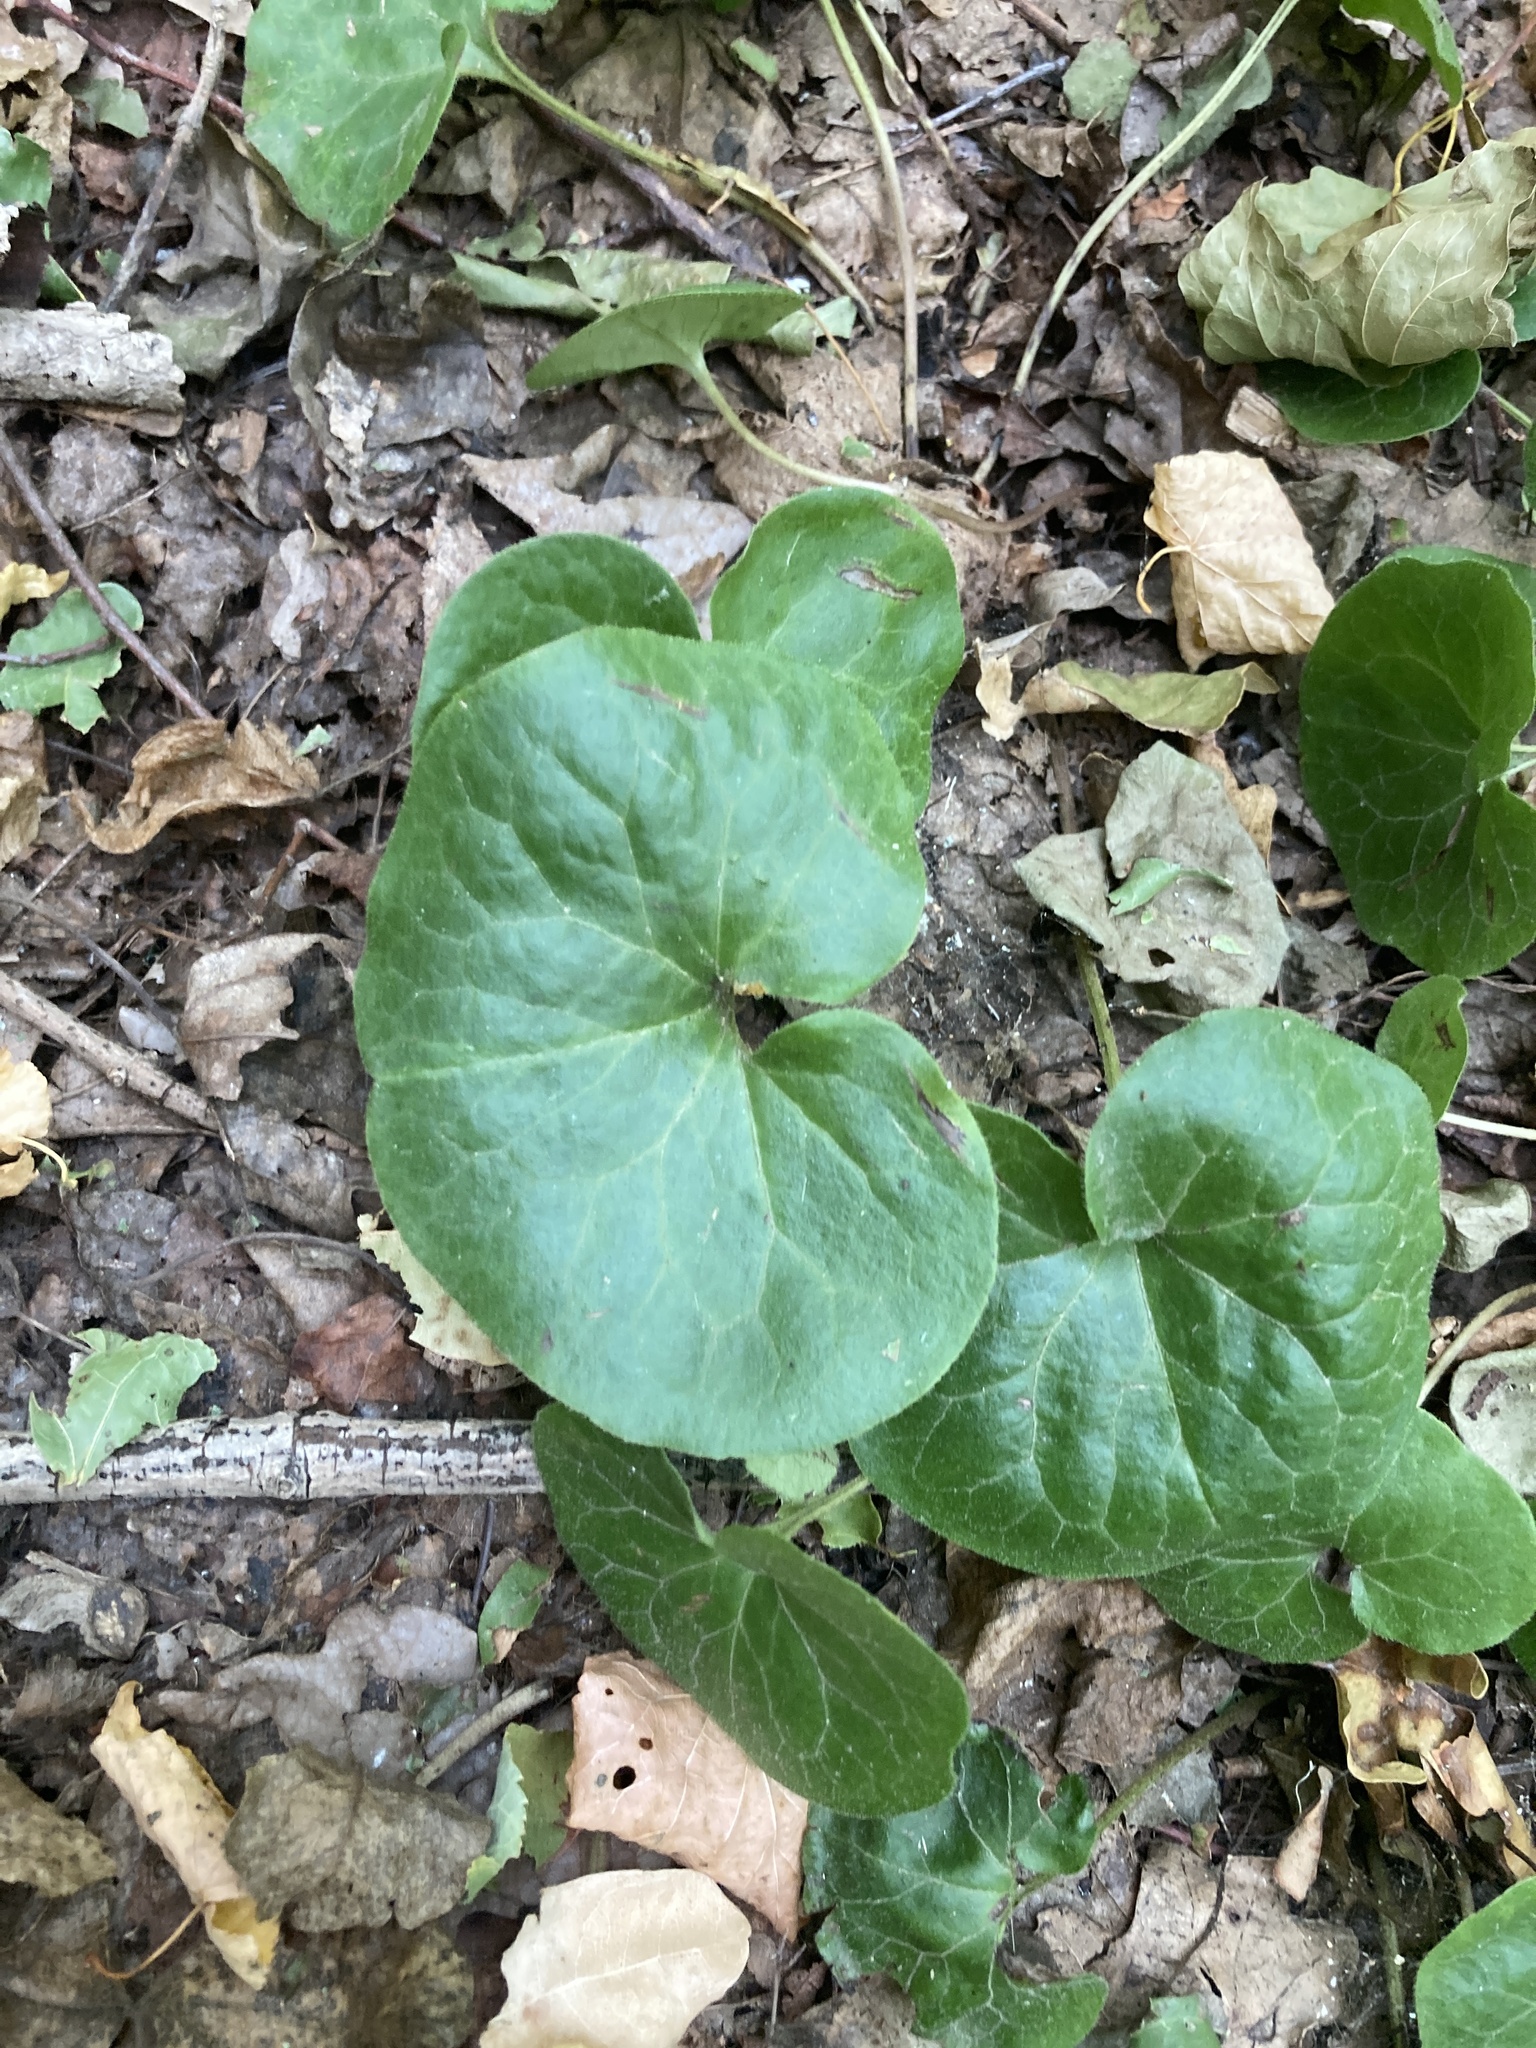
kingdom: Plantae
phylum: Tracheophyta
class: Magnoliopsida
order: Piperales
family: Aristolochiaceae
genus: Asarum
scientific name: Asarum europaeum
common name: Asarabacca
